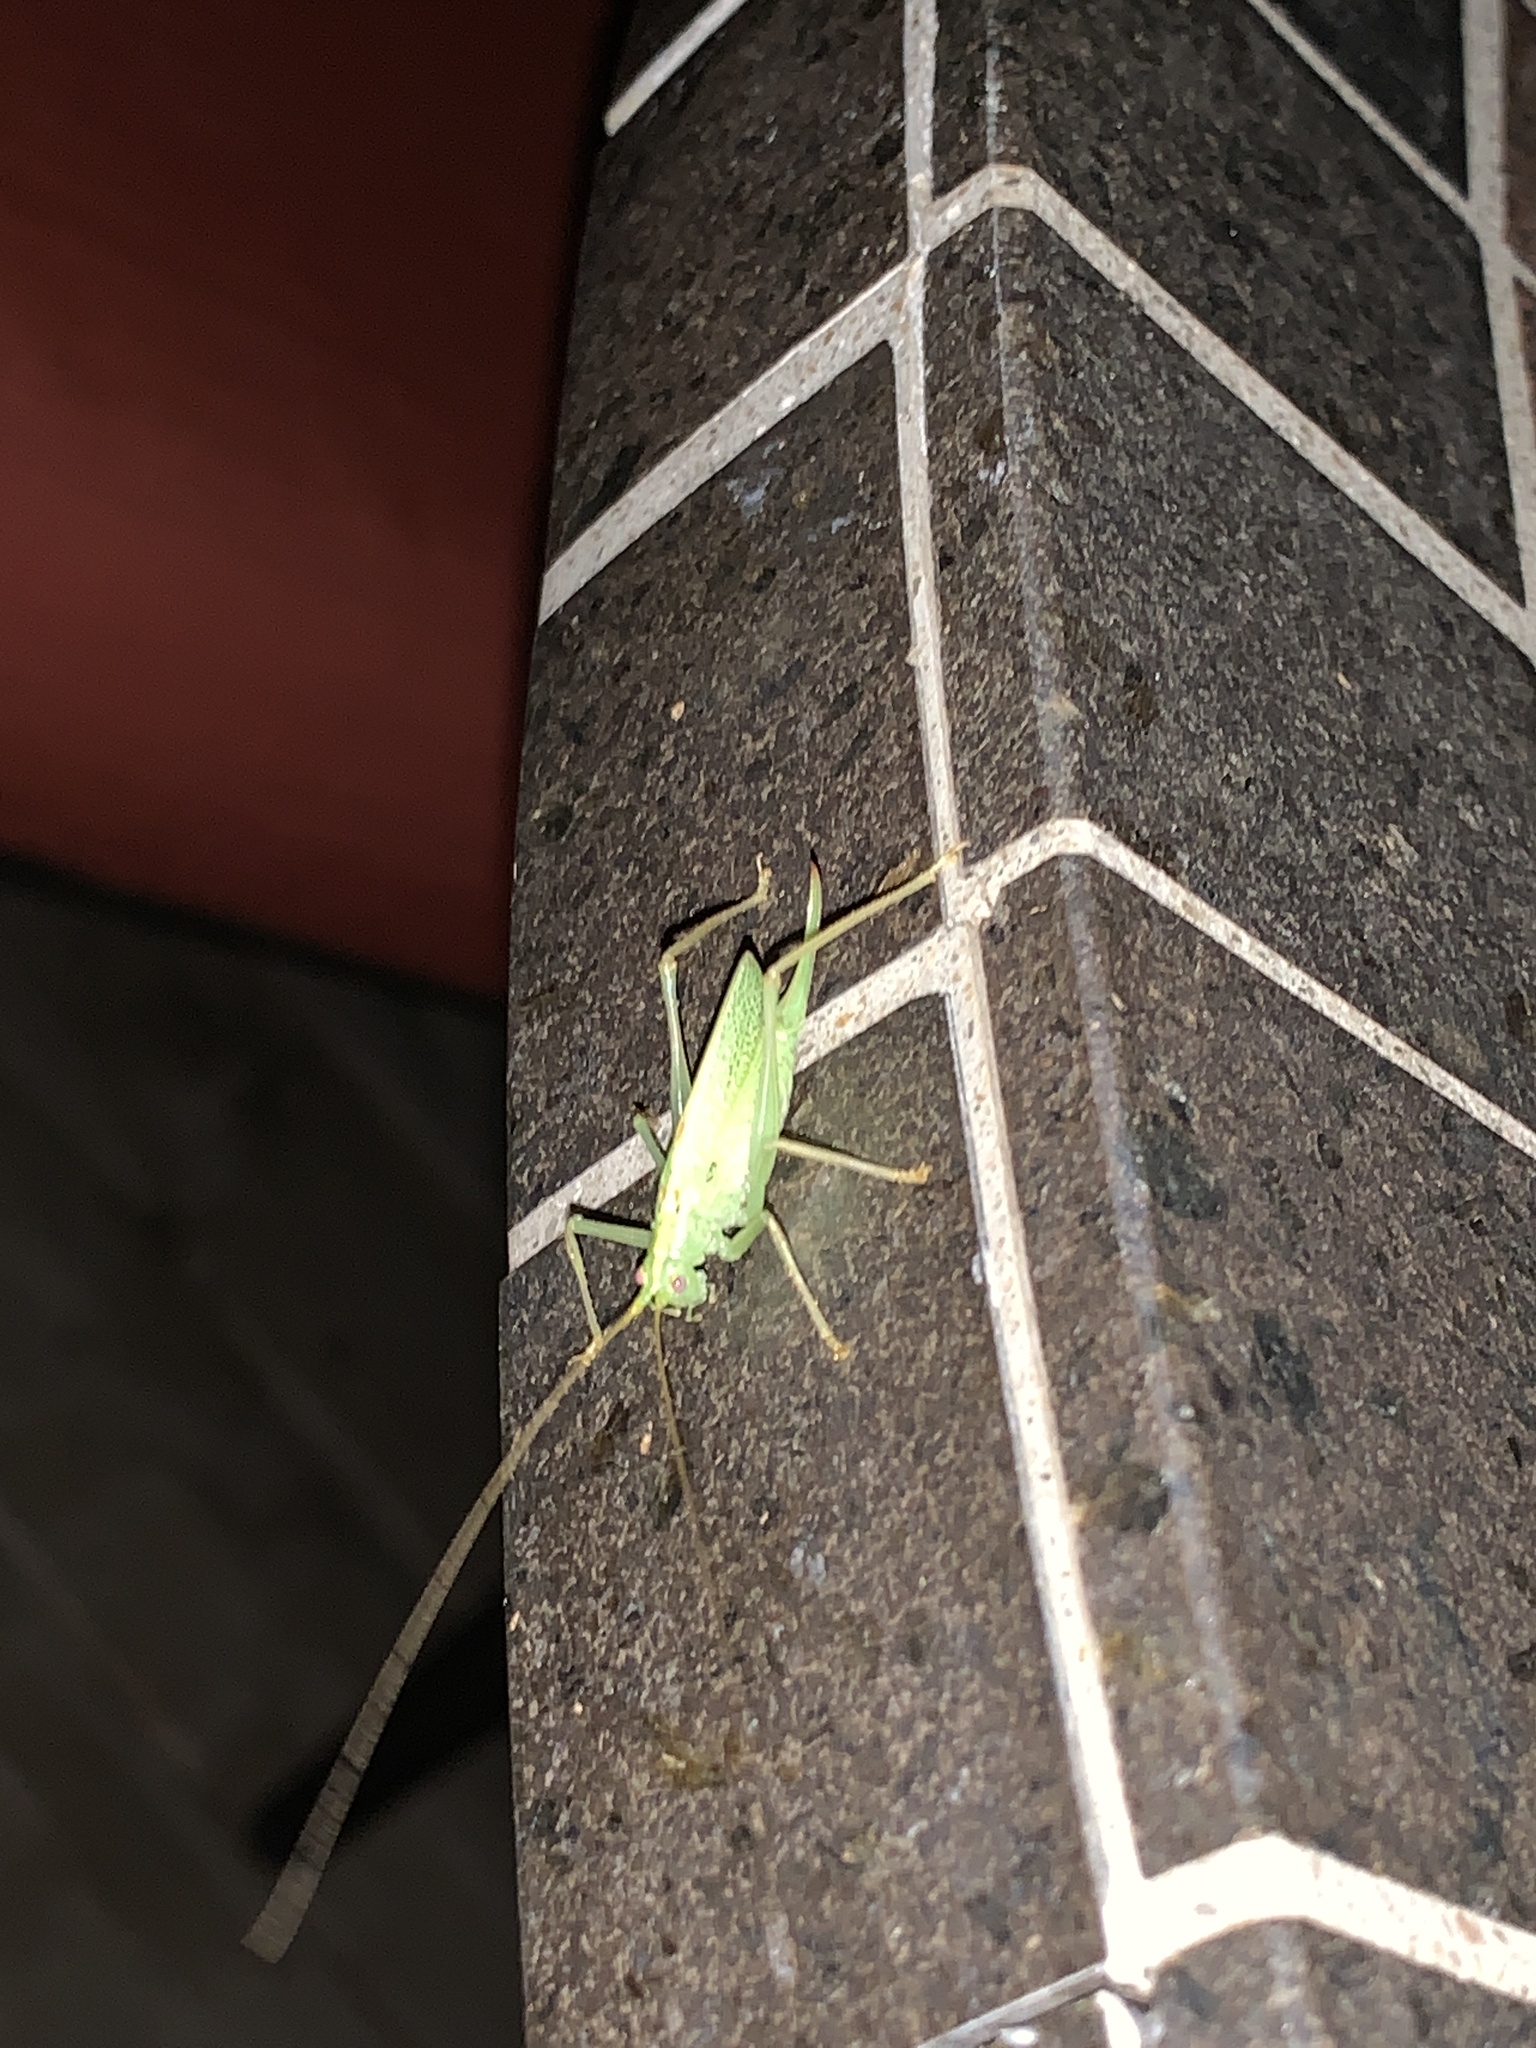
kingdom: Animalia
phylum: Arthropoda
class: Insecta
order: Orthoptera
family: Tettigoniidae
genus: Meconema
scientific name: Meconema thalassinum
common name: Oak bush-cricket
